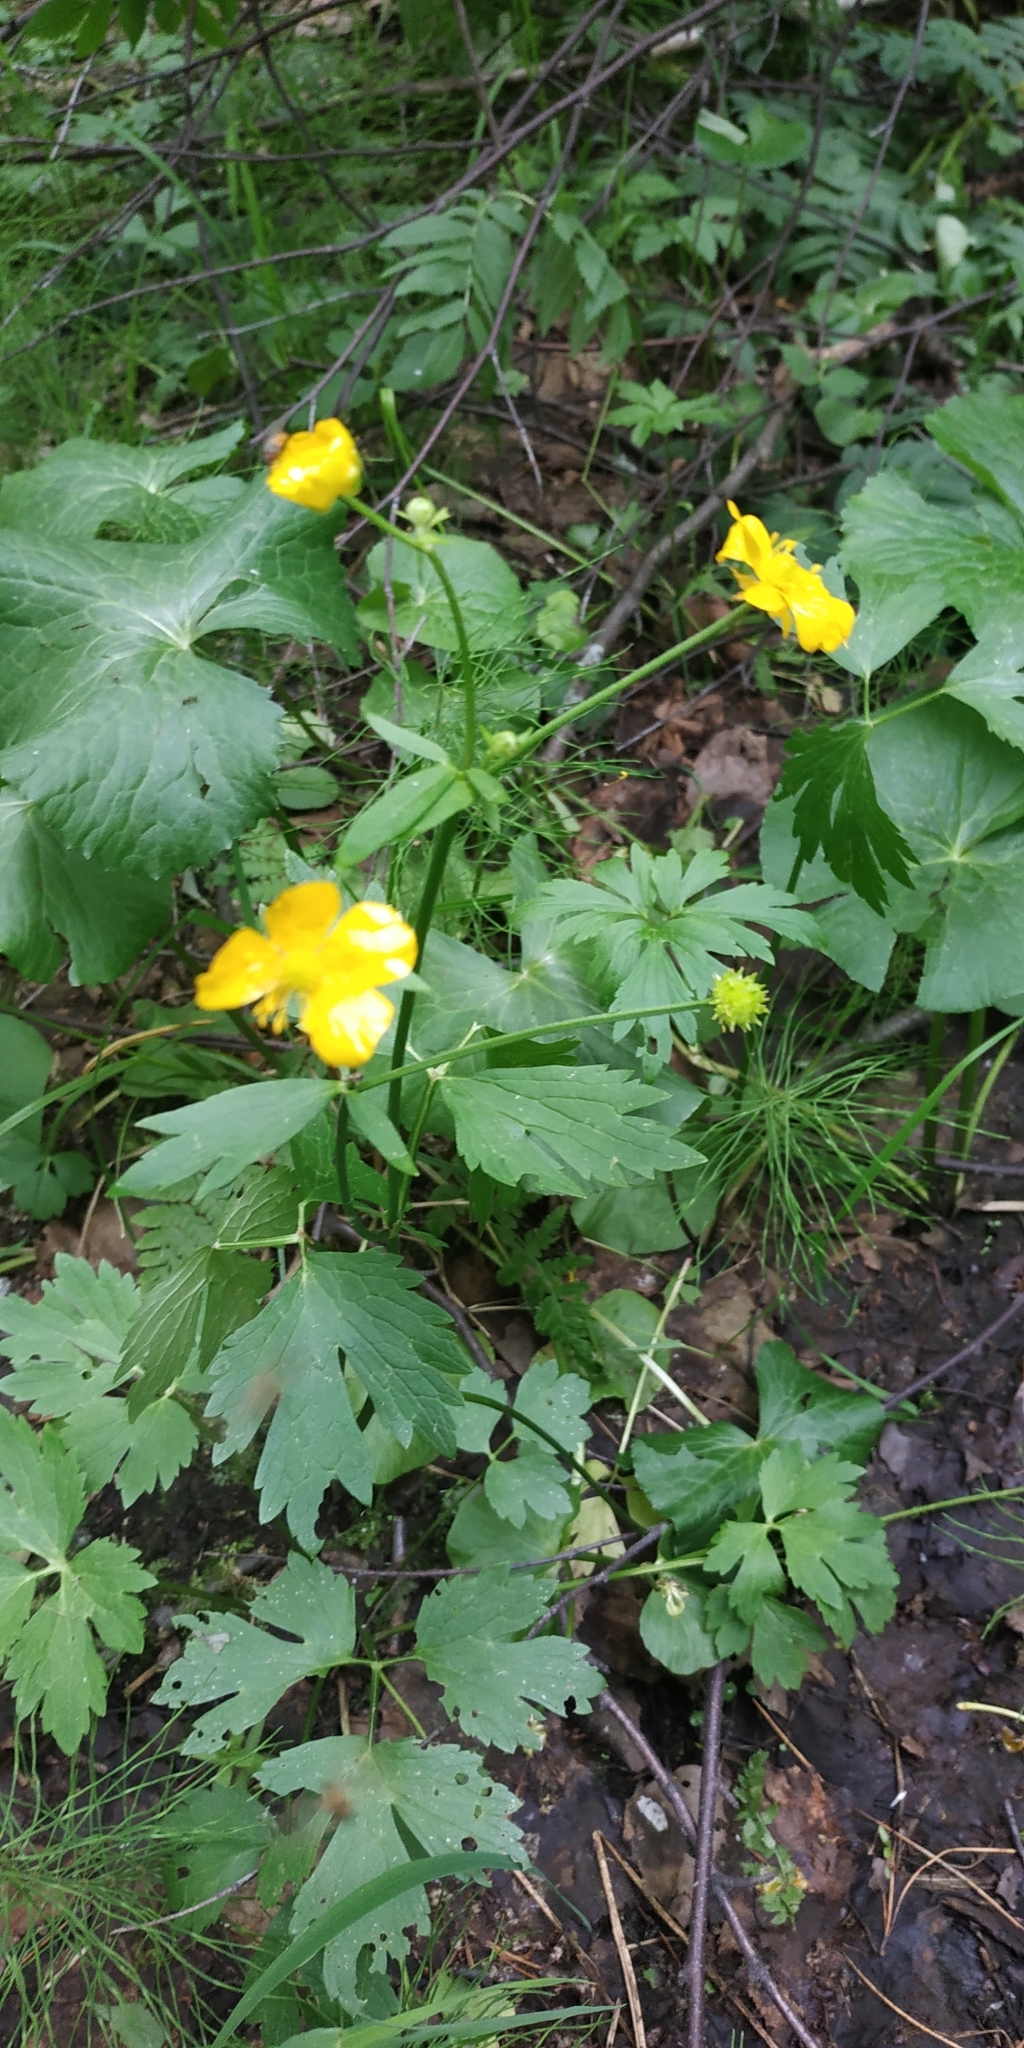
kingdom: Plantae
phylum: Tracheophyta
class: Magnoliopsida
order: Ranunculales
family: Ranunculaceae
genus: Ranunculus
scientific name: Ranunculus repens
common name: Creeping buttercup
